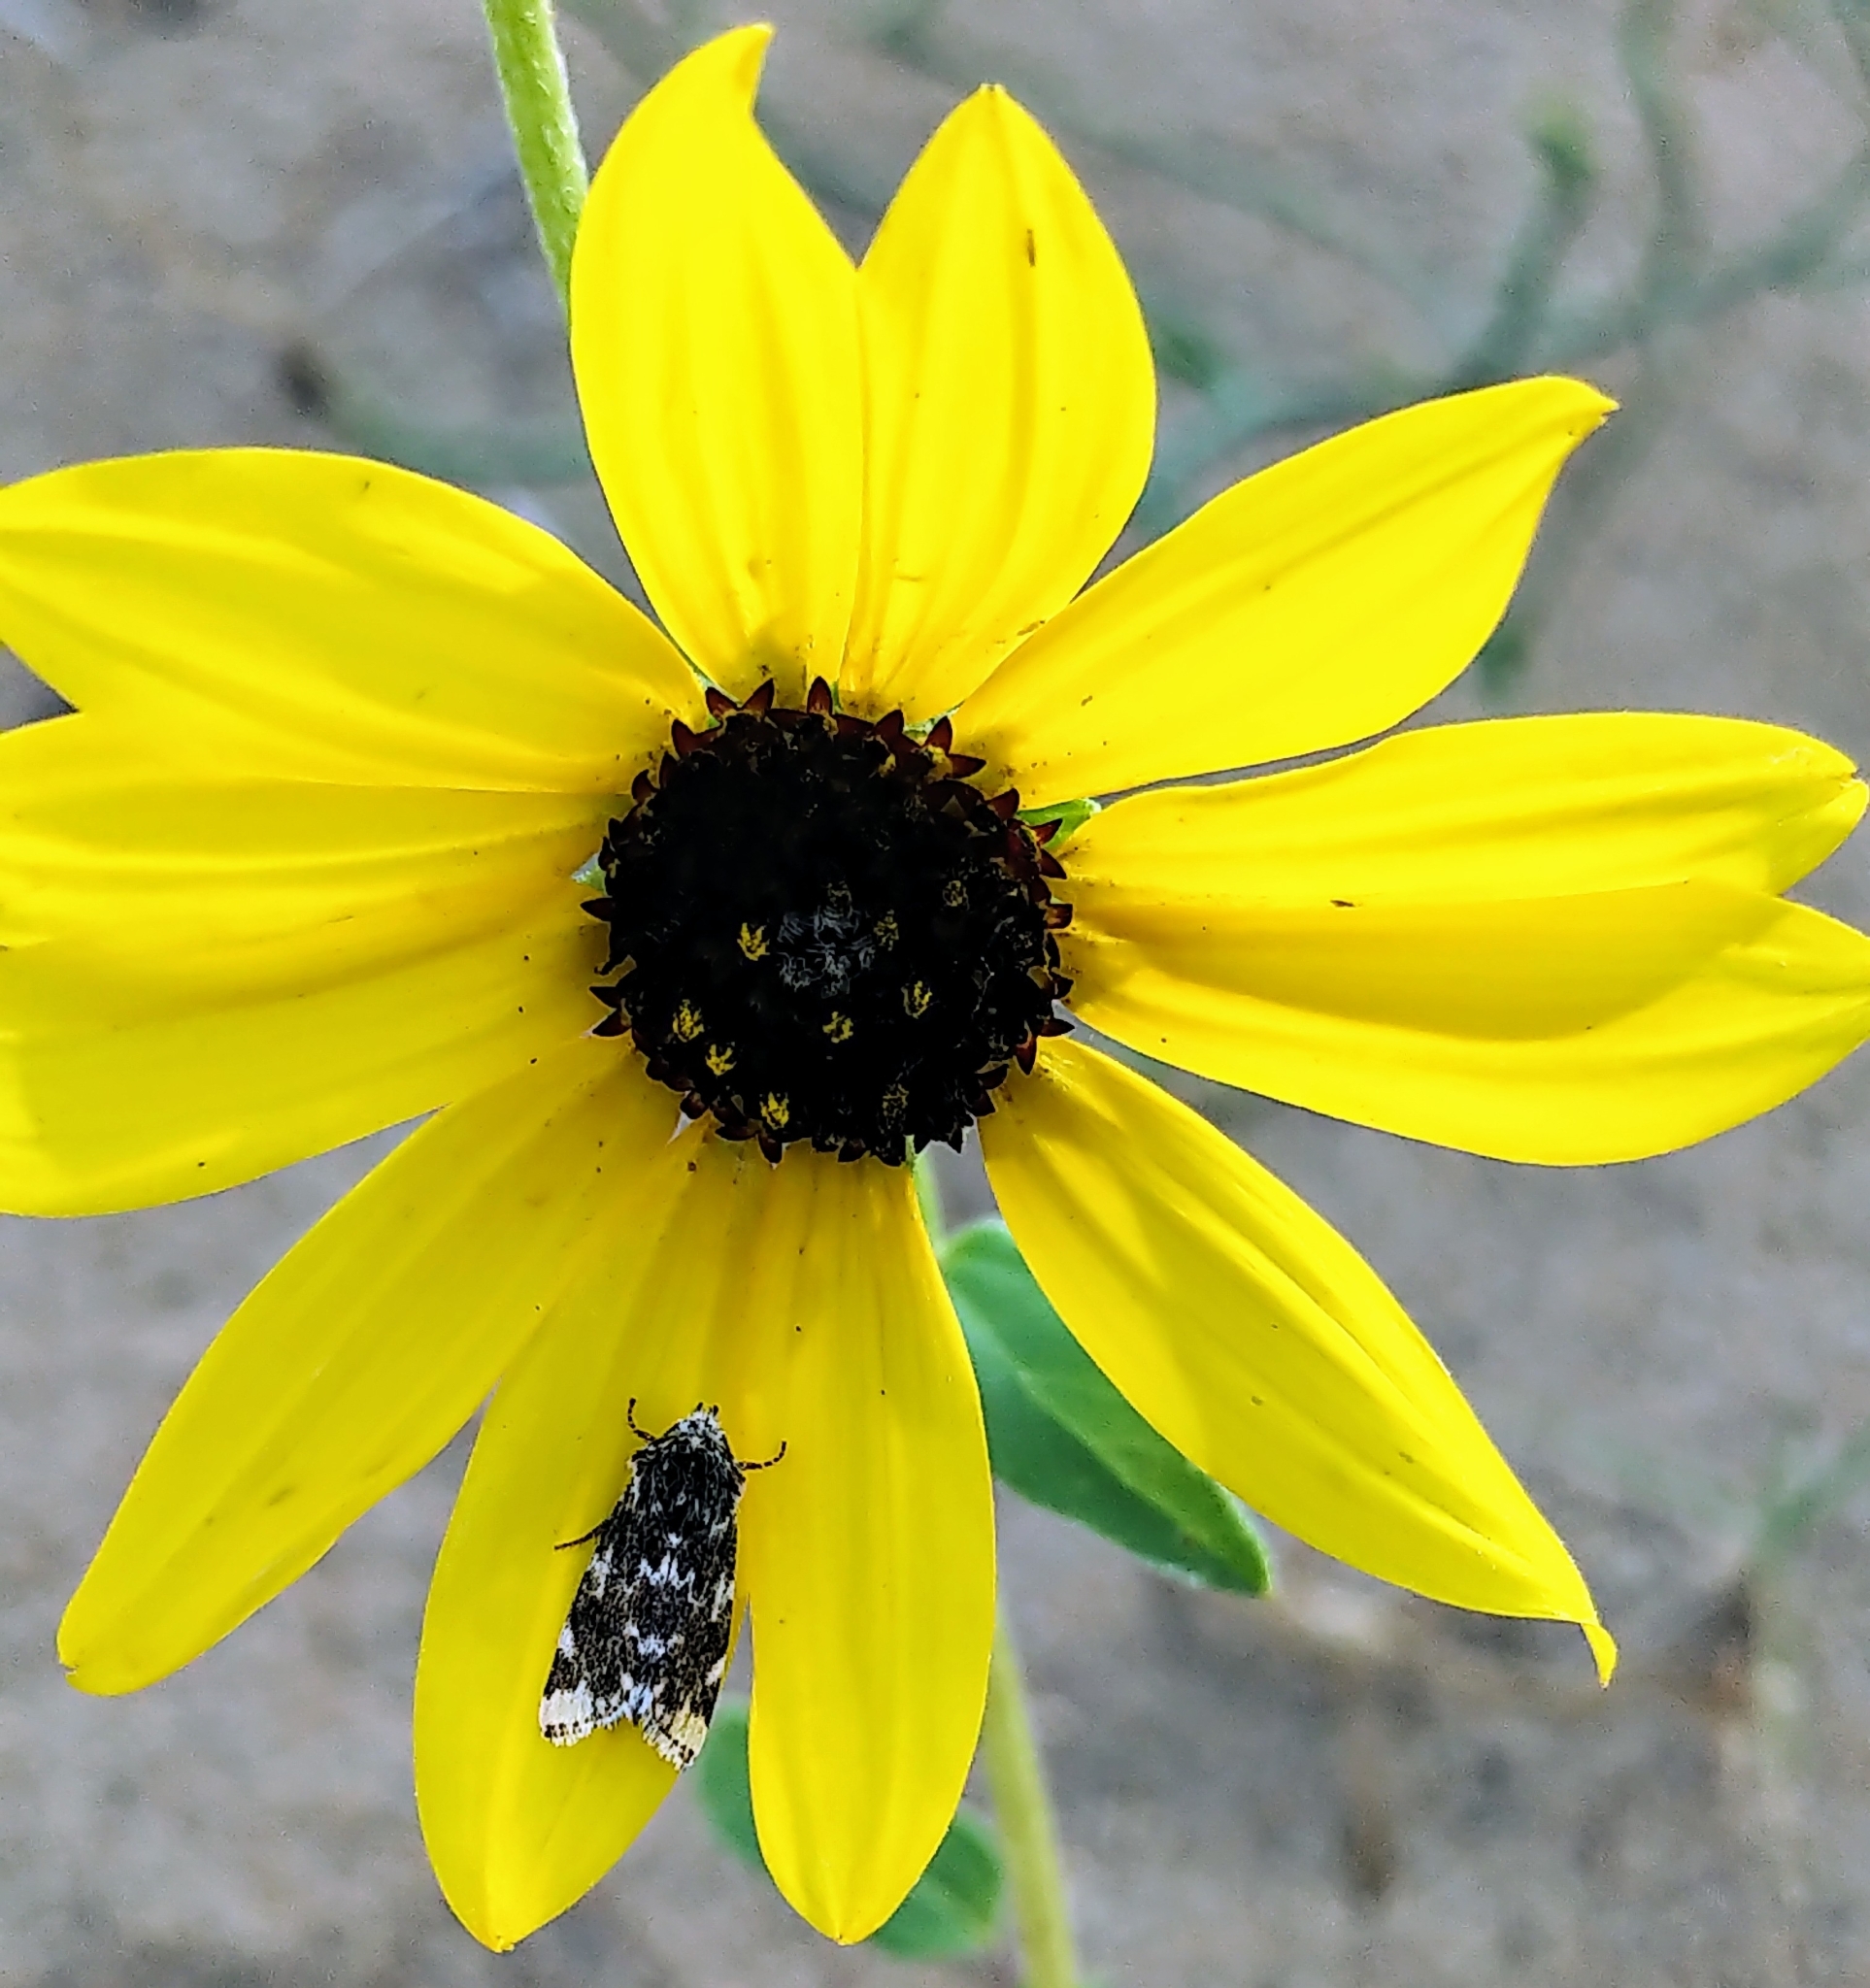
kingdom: Animalia
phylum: Arthropoda
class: Insecta
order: Lepidoptera
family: Noctuidae
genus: Schinia
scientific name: Schinia avemensis
